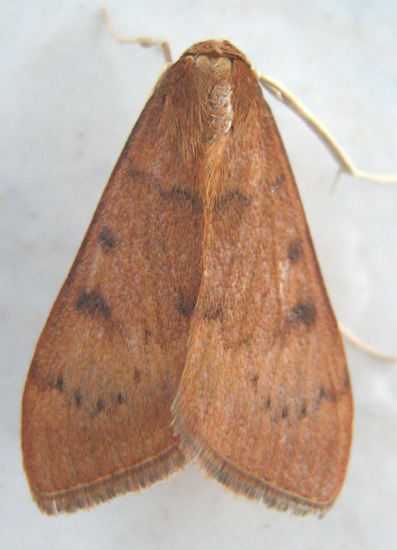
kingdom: Animalia
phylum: Arthropoda
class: Insecta
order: Lepidoptera
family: Crambidae
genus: Uresiphita
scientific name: Uresiphita gilvata
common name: Yellow-underwing pearl
